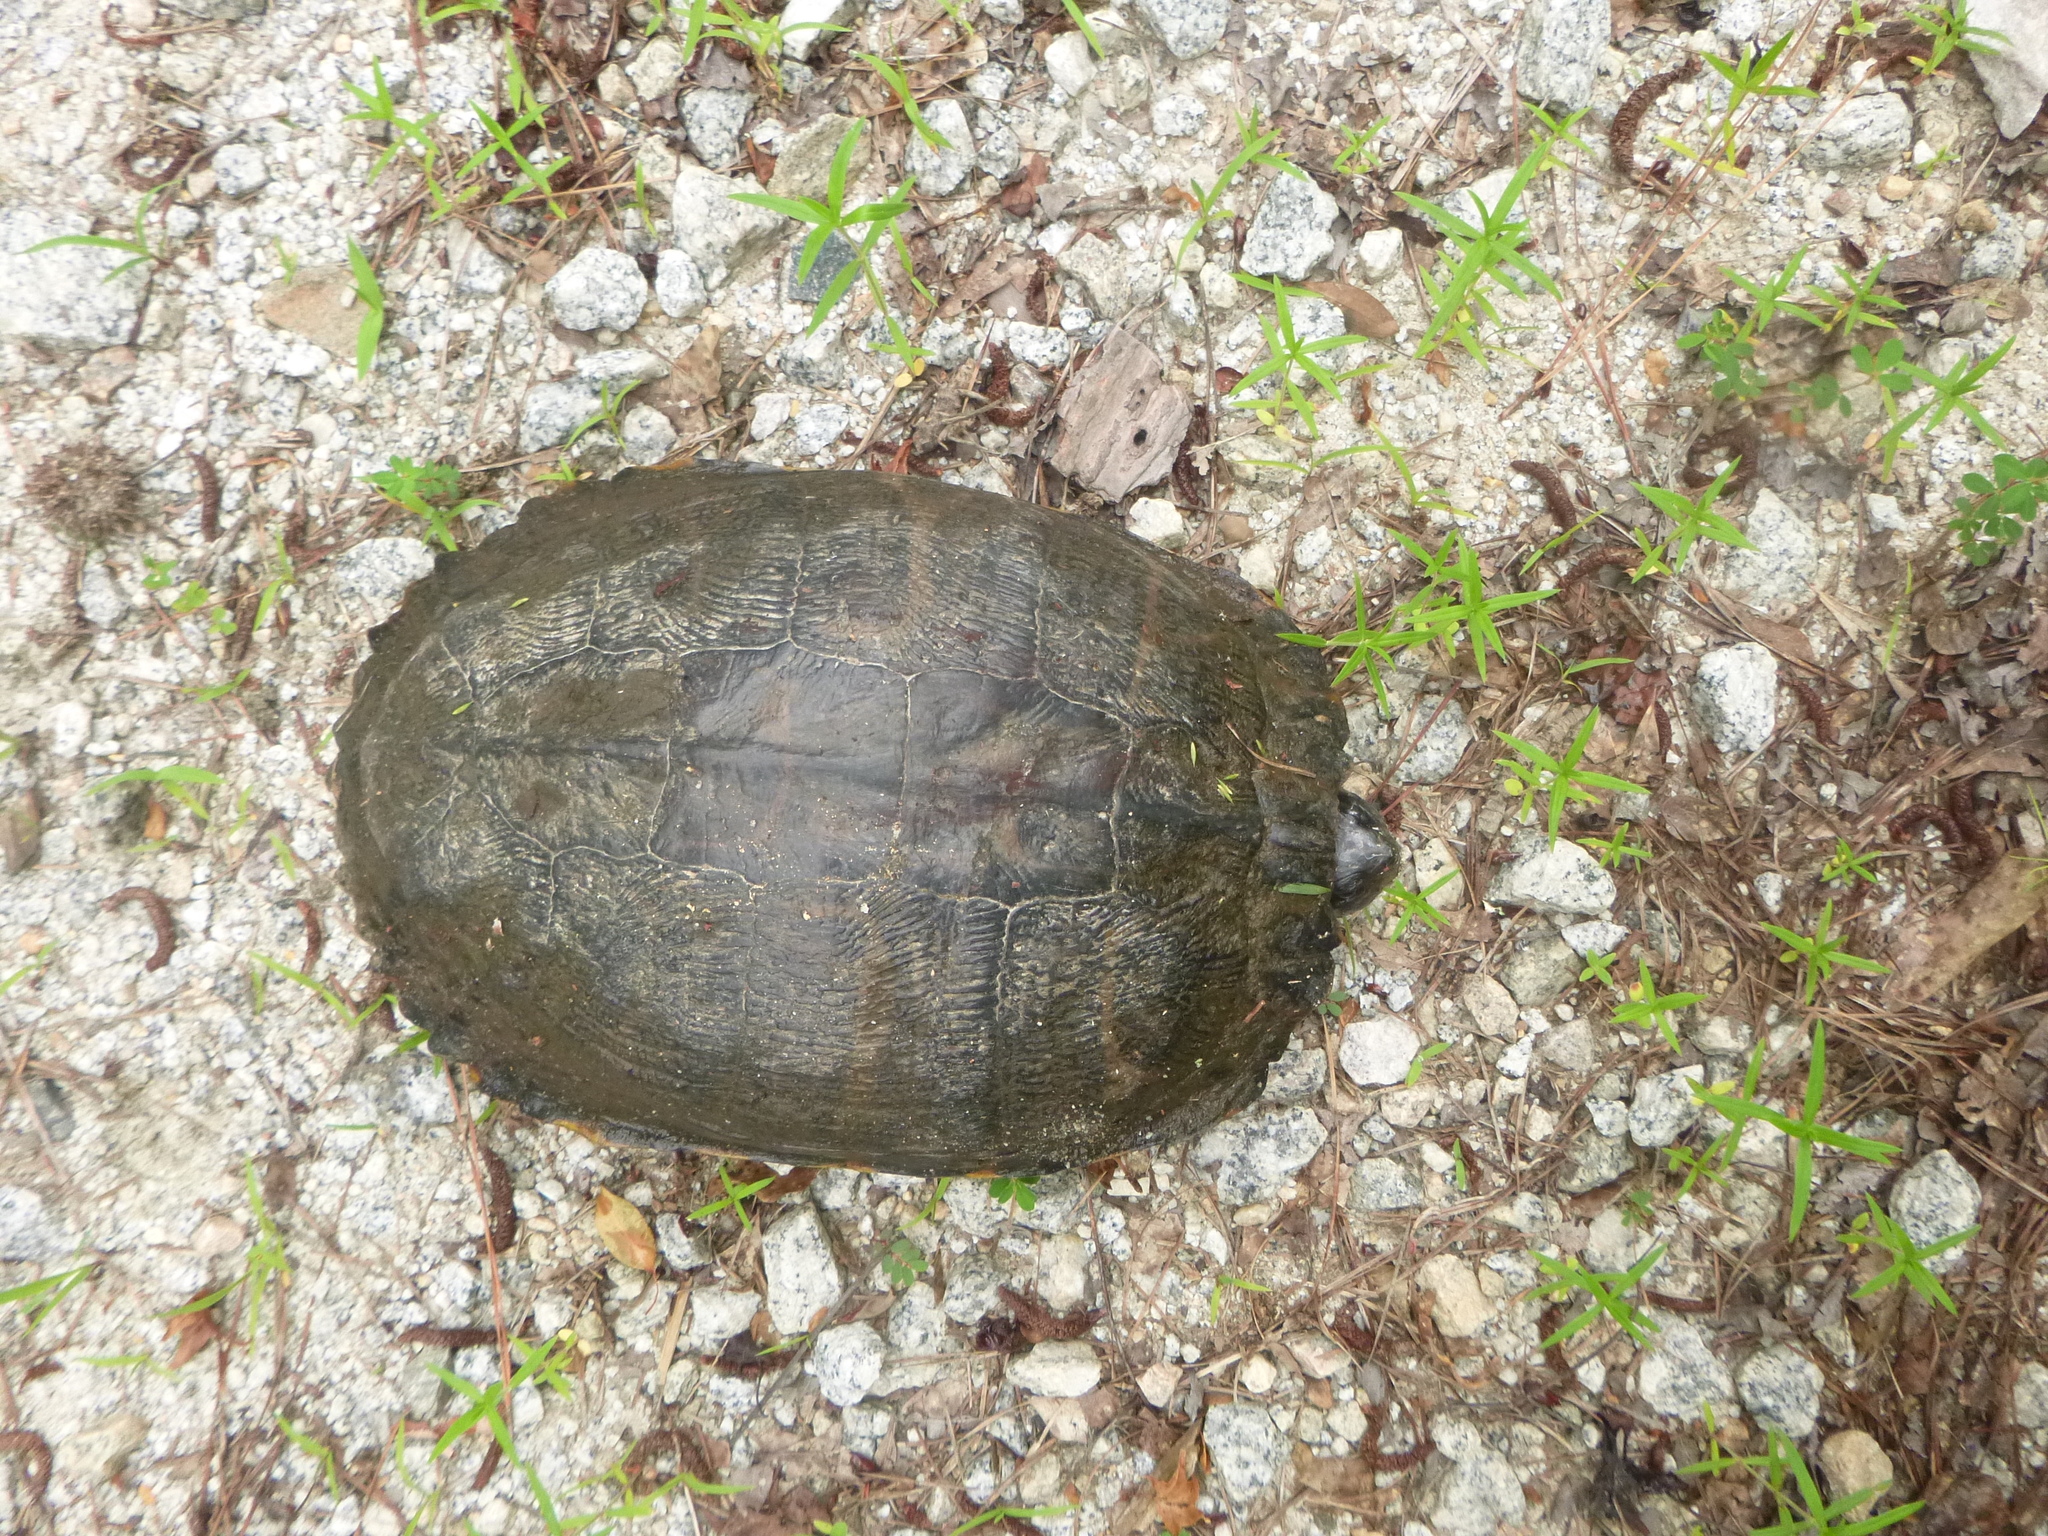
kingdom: Animalia
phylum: Chordata
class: Testudines
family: Emydidae
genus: Trachemys
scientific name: Trachemys scripta
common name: Slider
